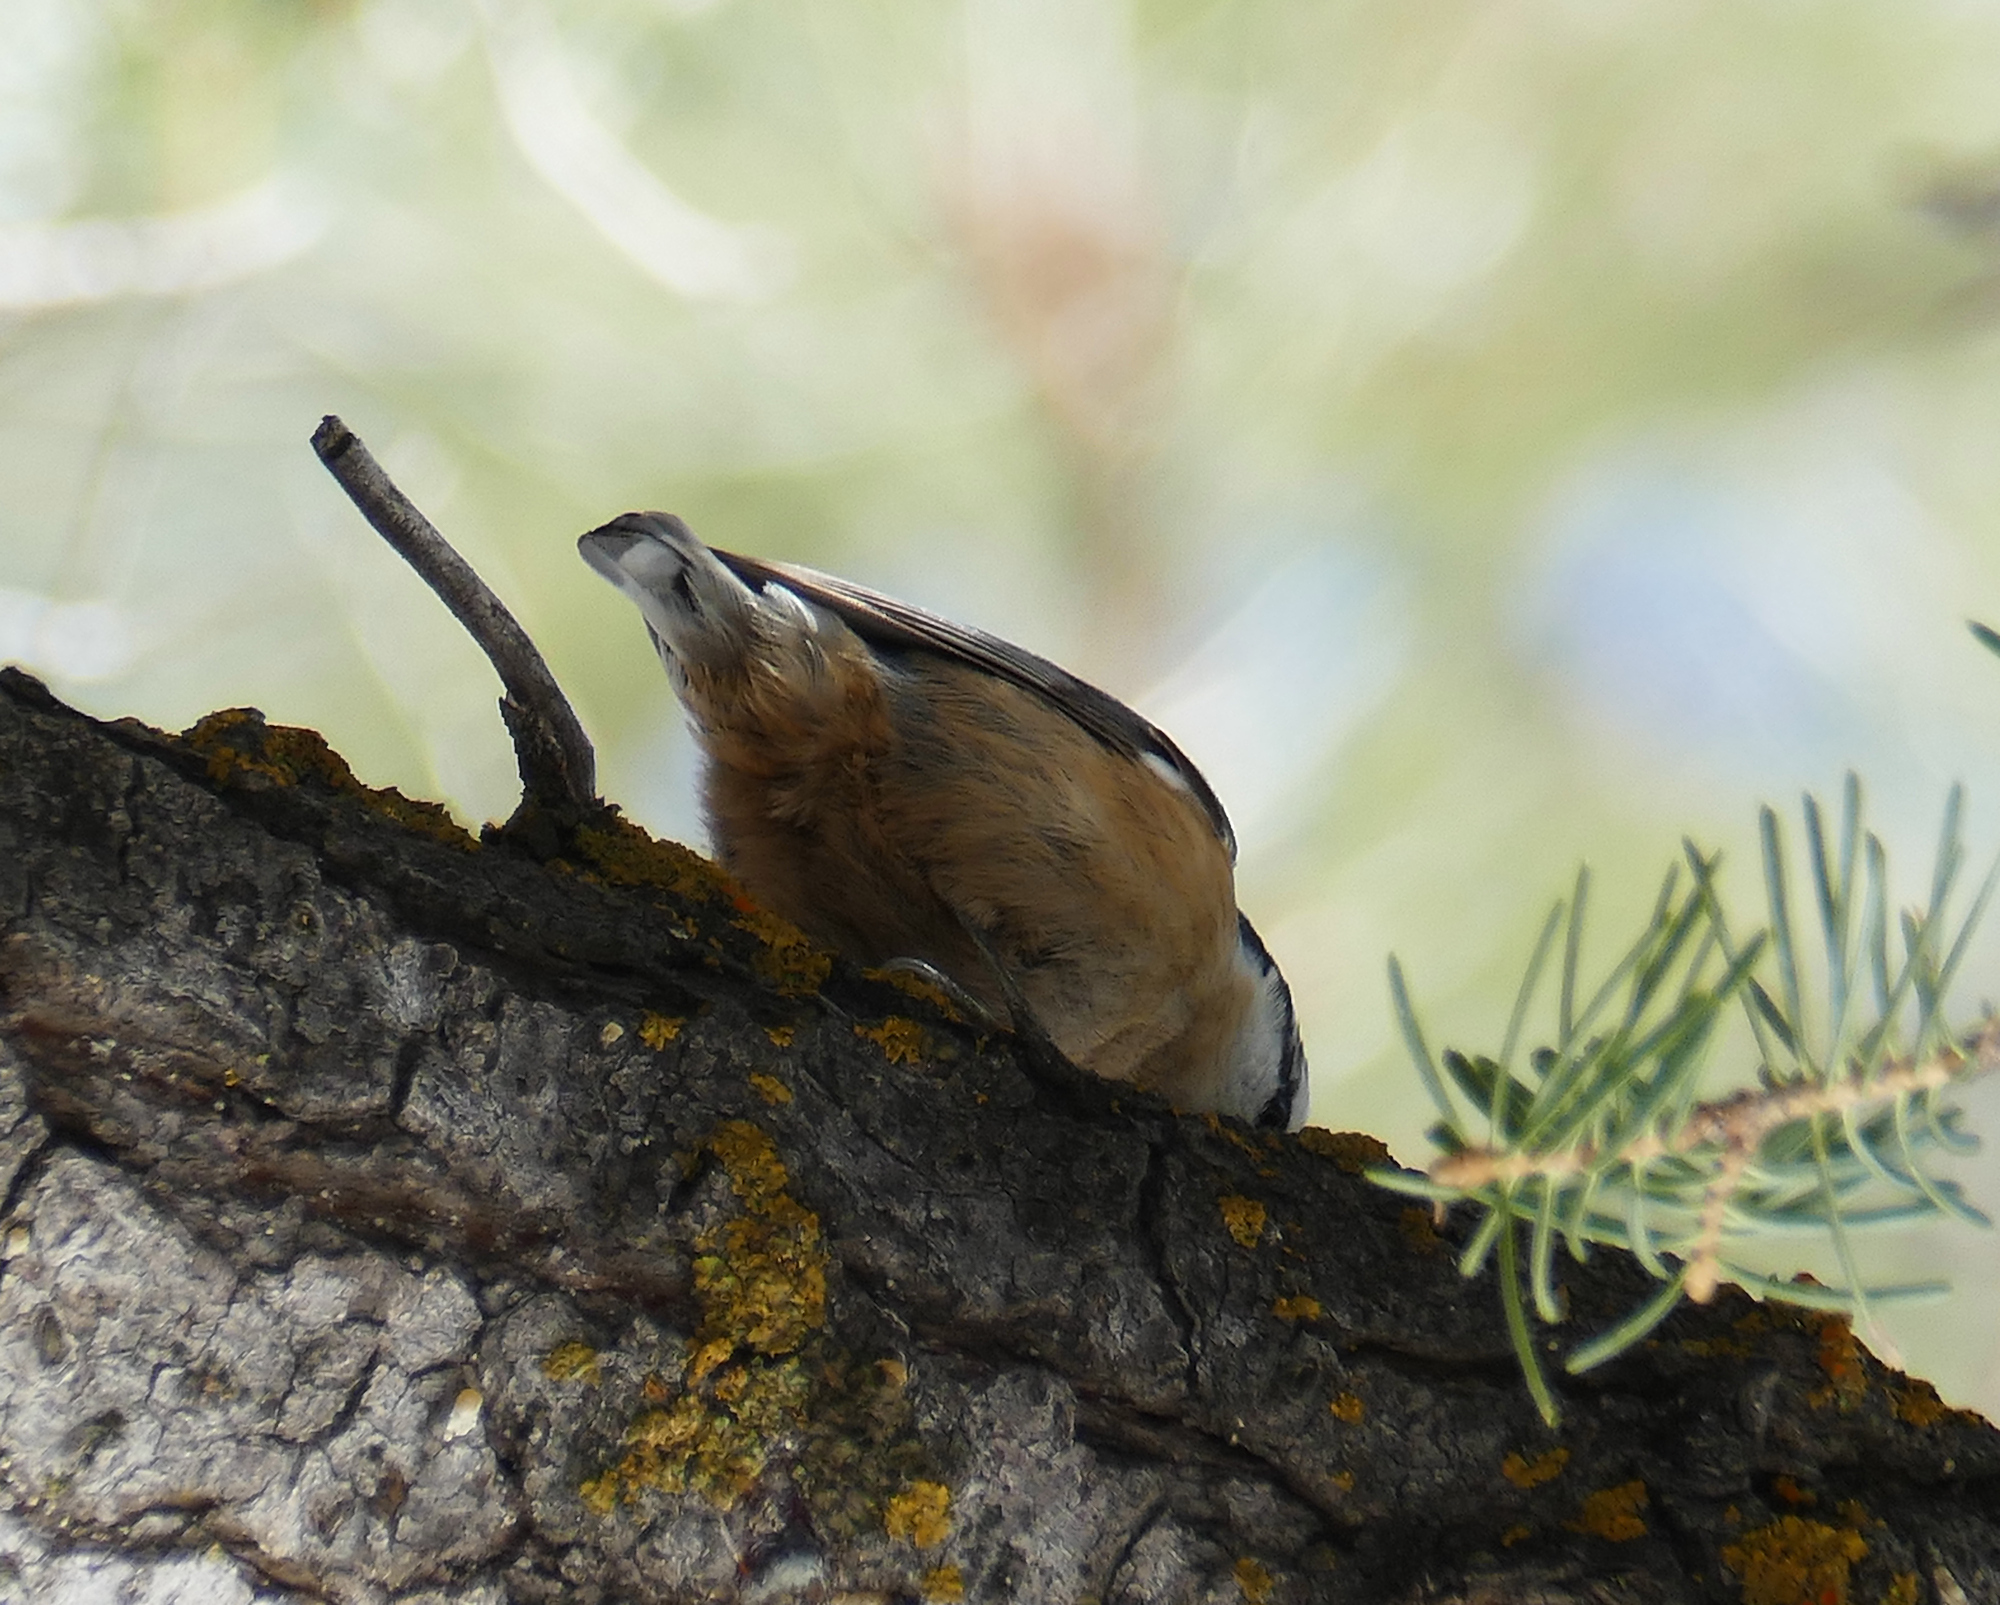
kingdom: Animalia
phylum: Chordata
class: Aves
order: Passeriformes
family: Sittidae
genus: Sitta
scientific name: Sitta canadensis
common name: Red-breasted nuthatch
